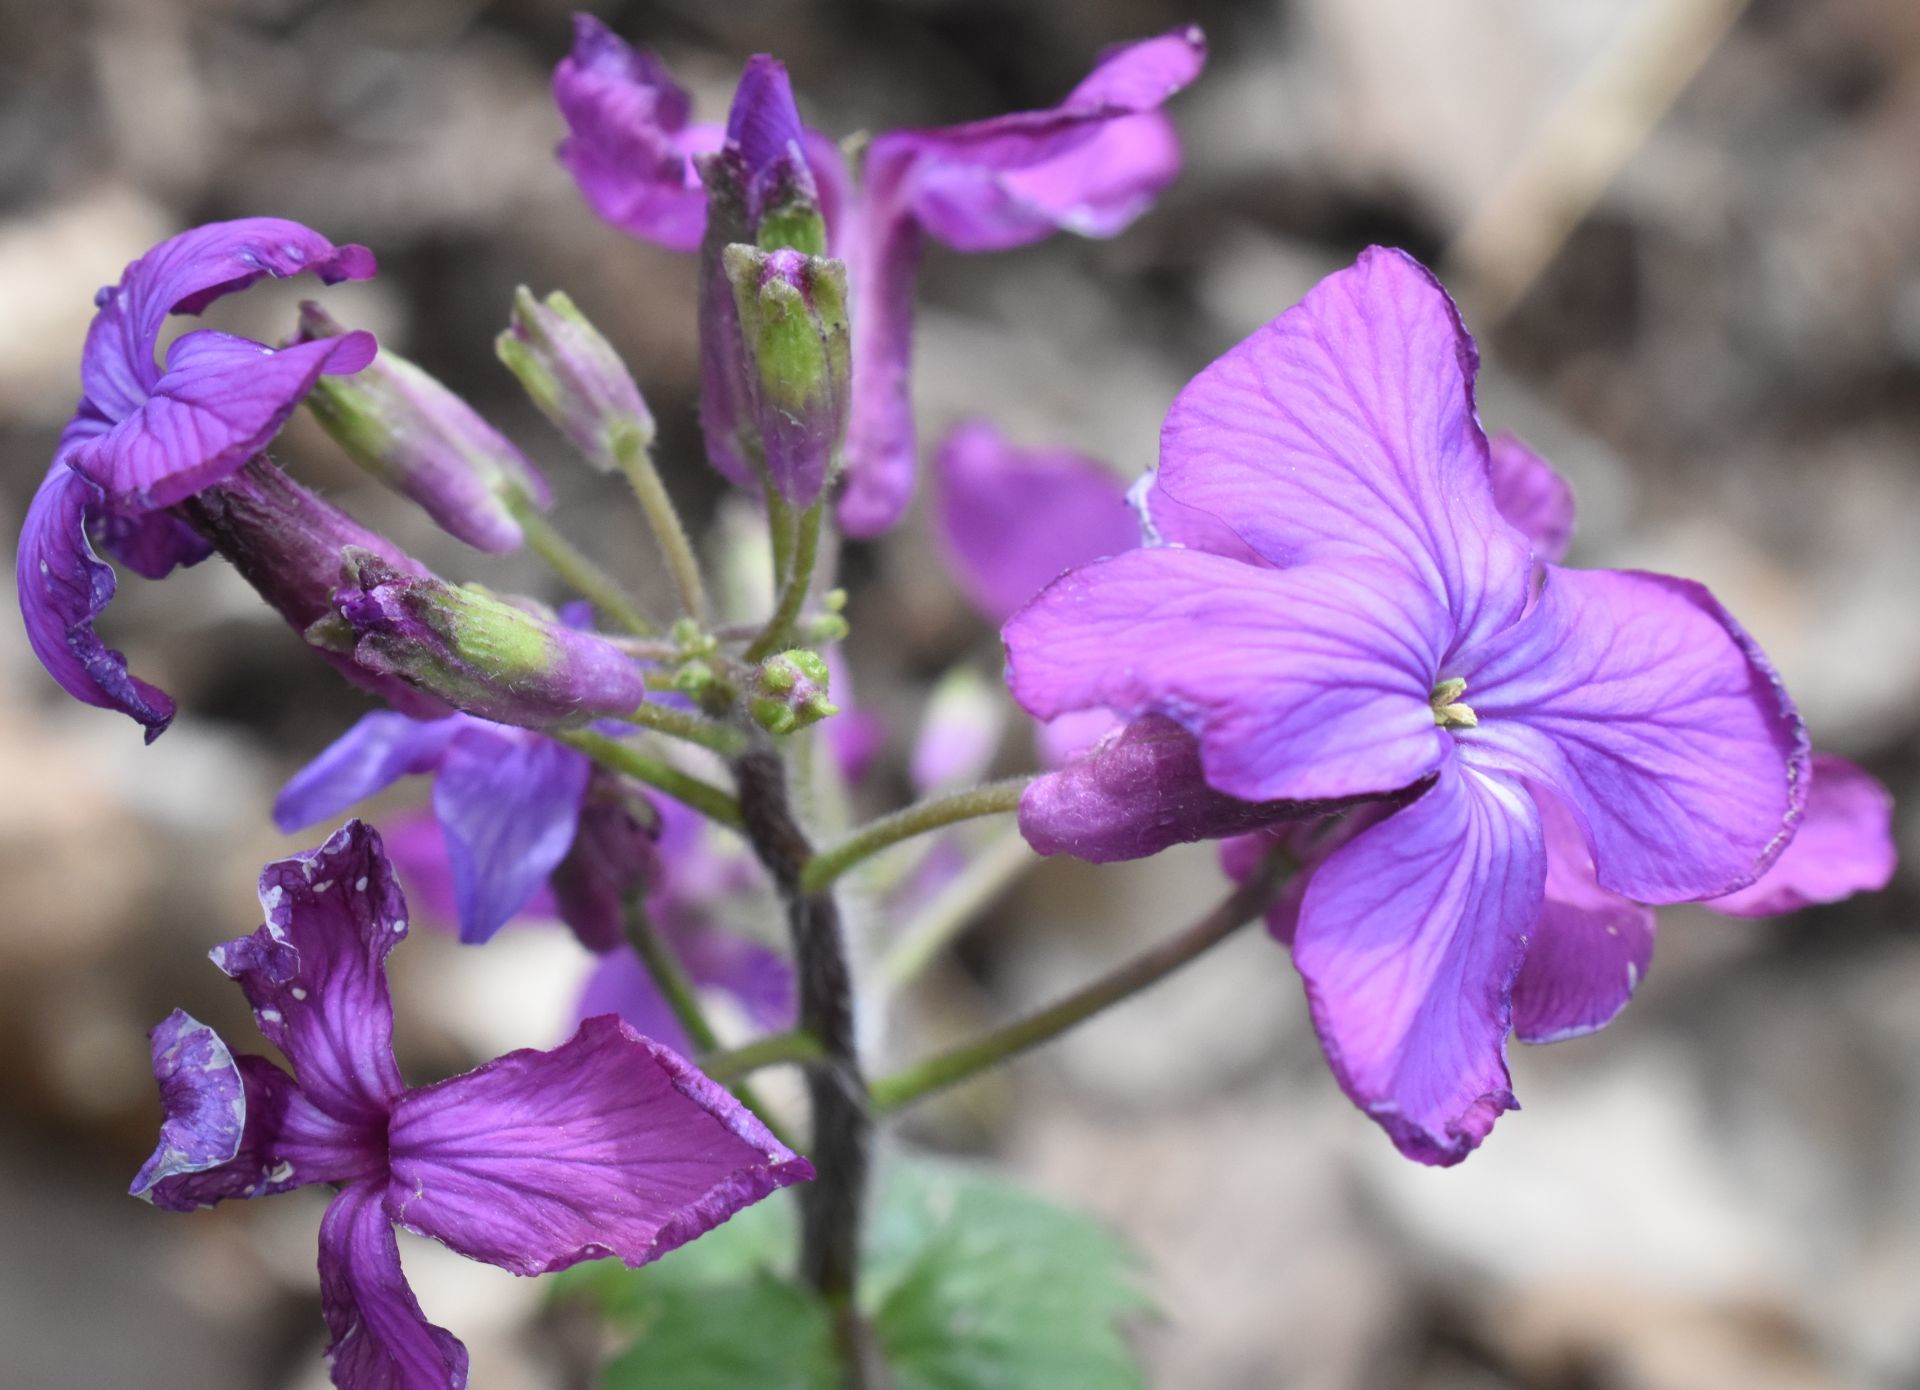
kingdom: Plantae
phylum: Tracheophyta
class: Magnoliopsida
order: Brassicales
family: Brassicaceae
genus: Lunaria
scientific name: Lunaria annua
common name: Honesty
